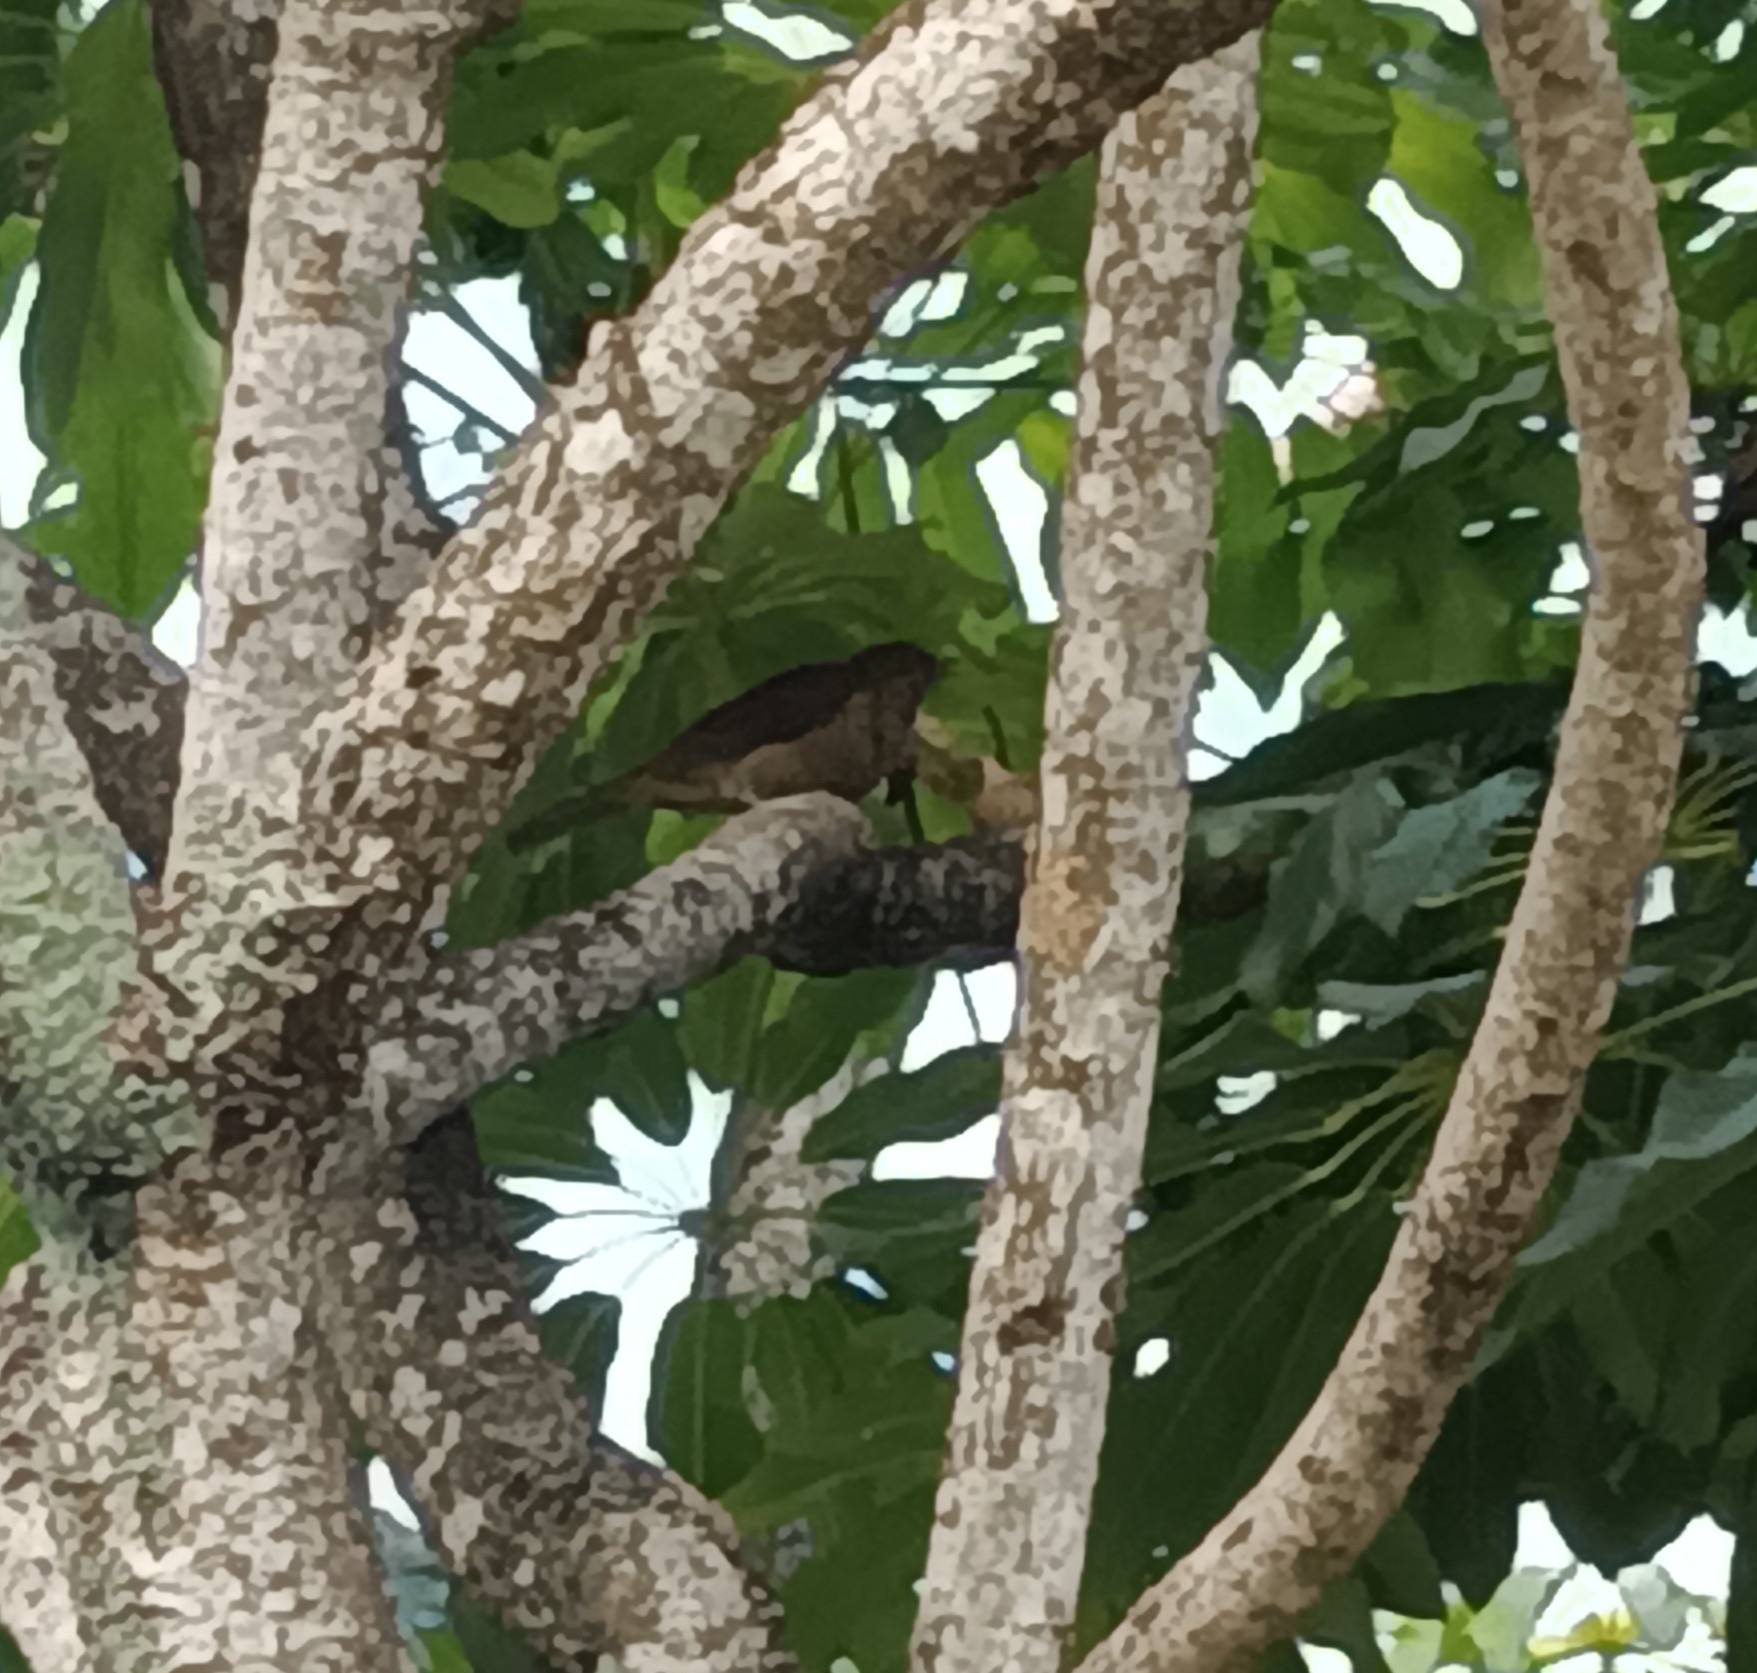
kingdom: Animalia
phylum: Chordata
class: Aves
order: Passeriformes
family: Turdidae
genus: Turdus
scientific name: Turdus grayi
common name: Clay-colored thrush
